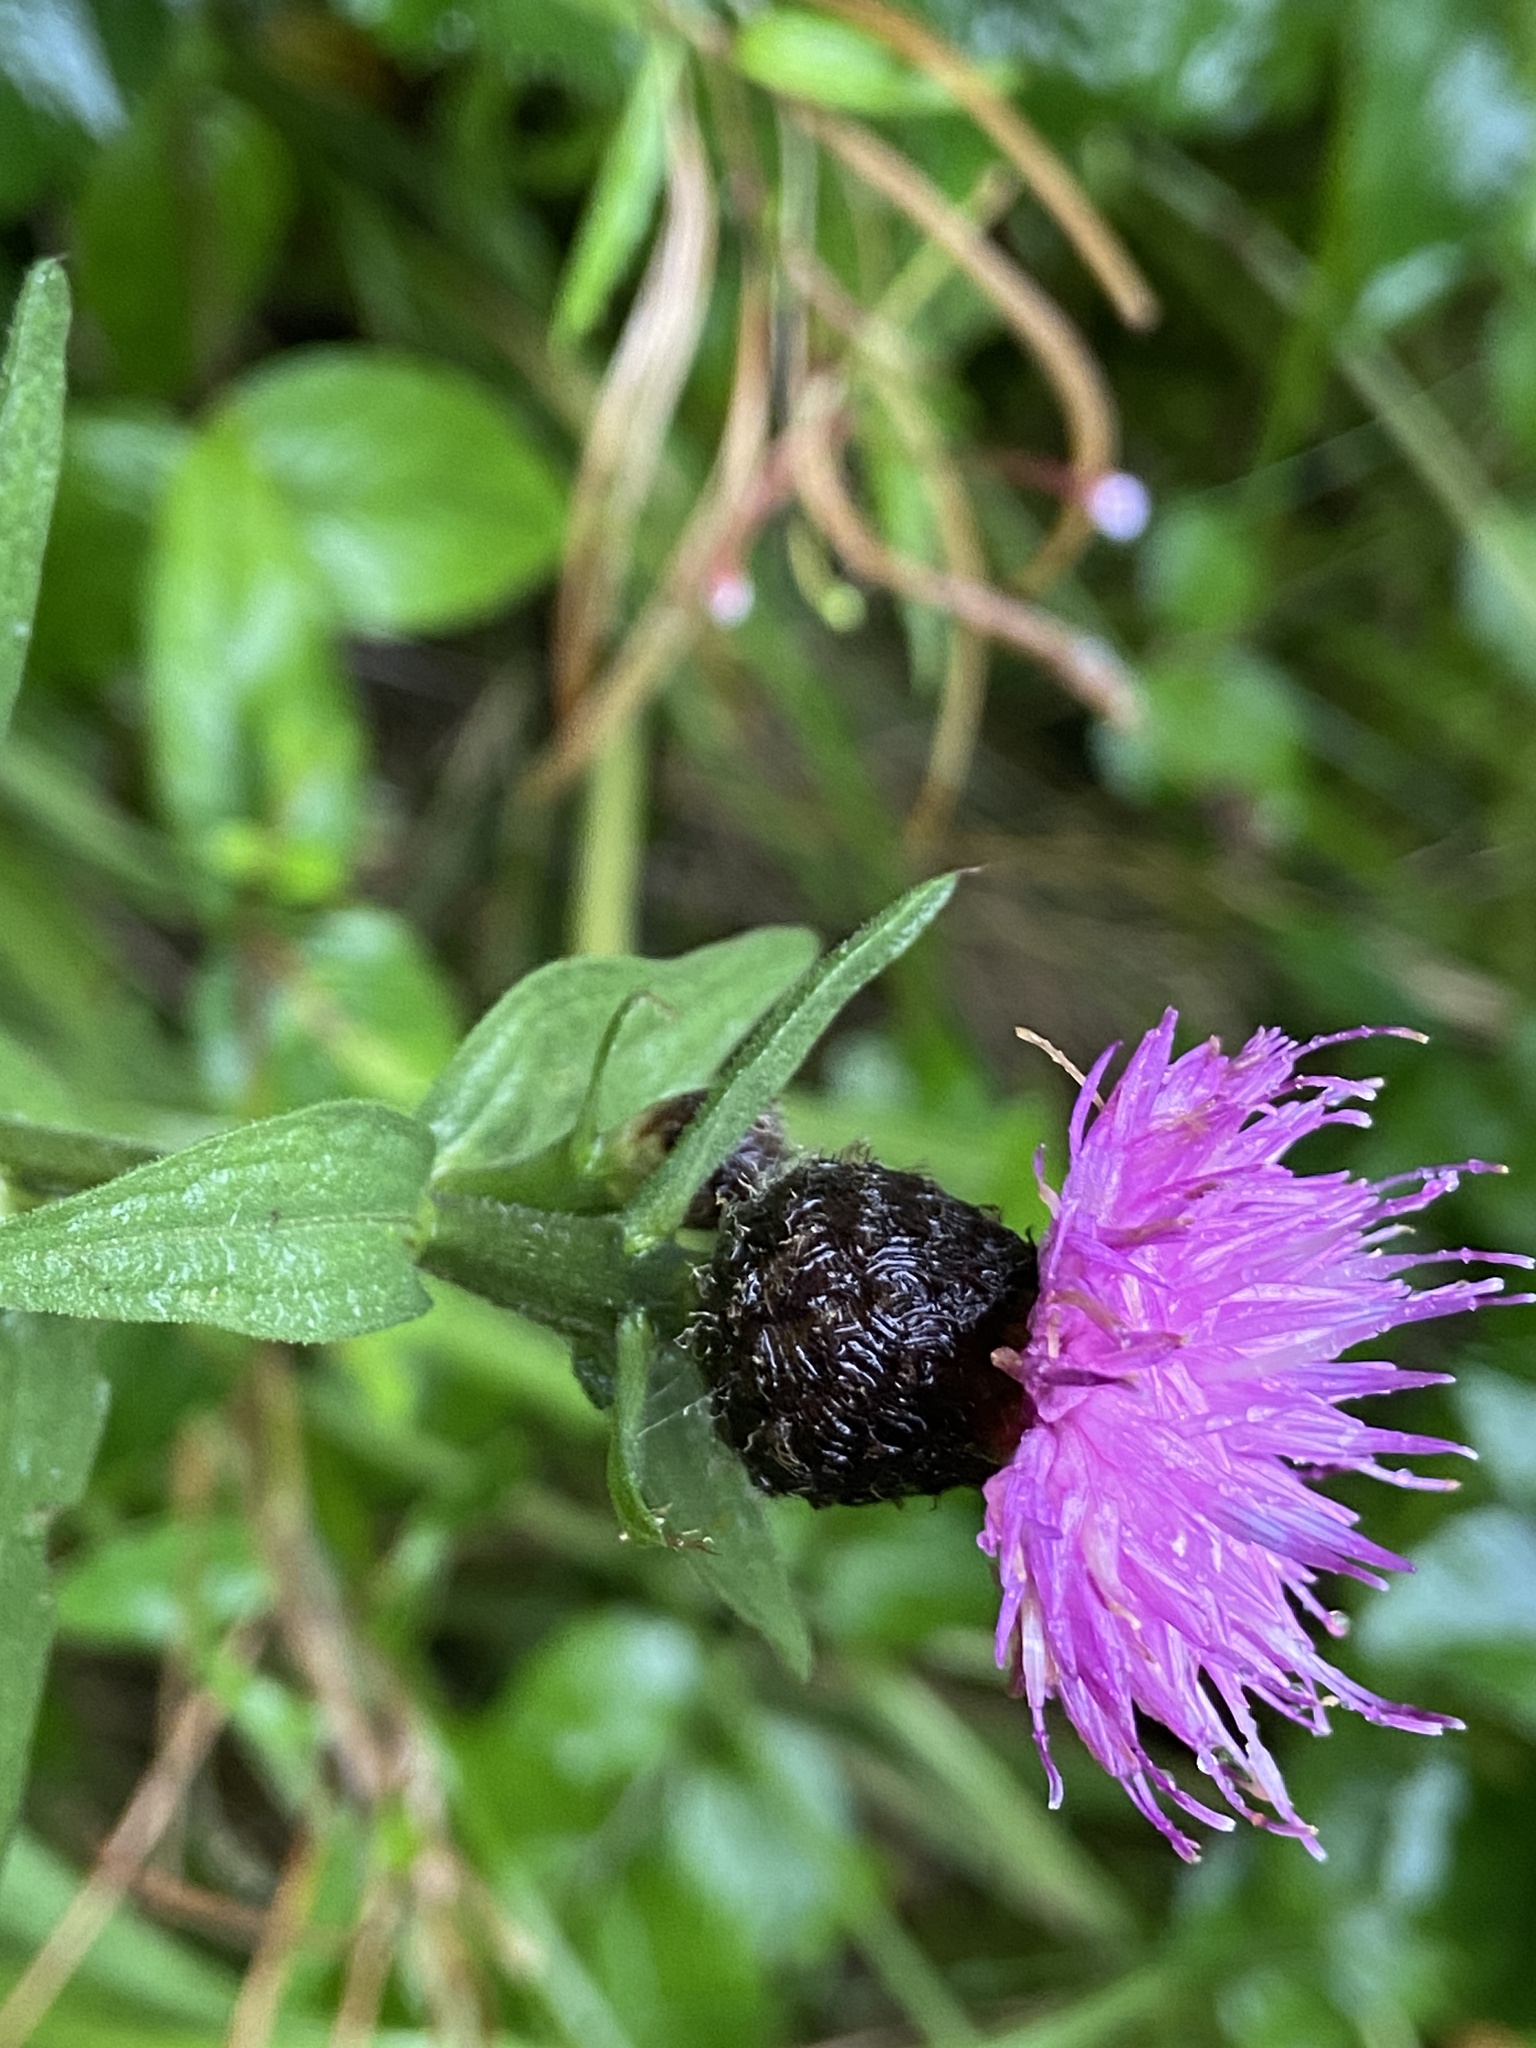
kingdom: Plantae
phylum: Tracheophyta
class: Magnoliopsida
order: Asterales
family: Asteraceae
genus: Centaurea
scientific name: Centaurea nigra
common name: Lesser knapweed
